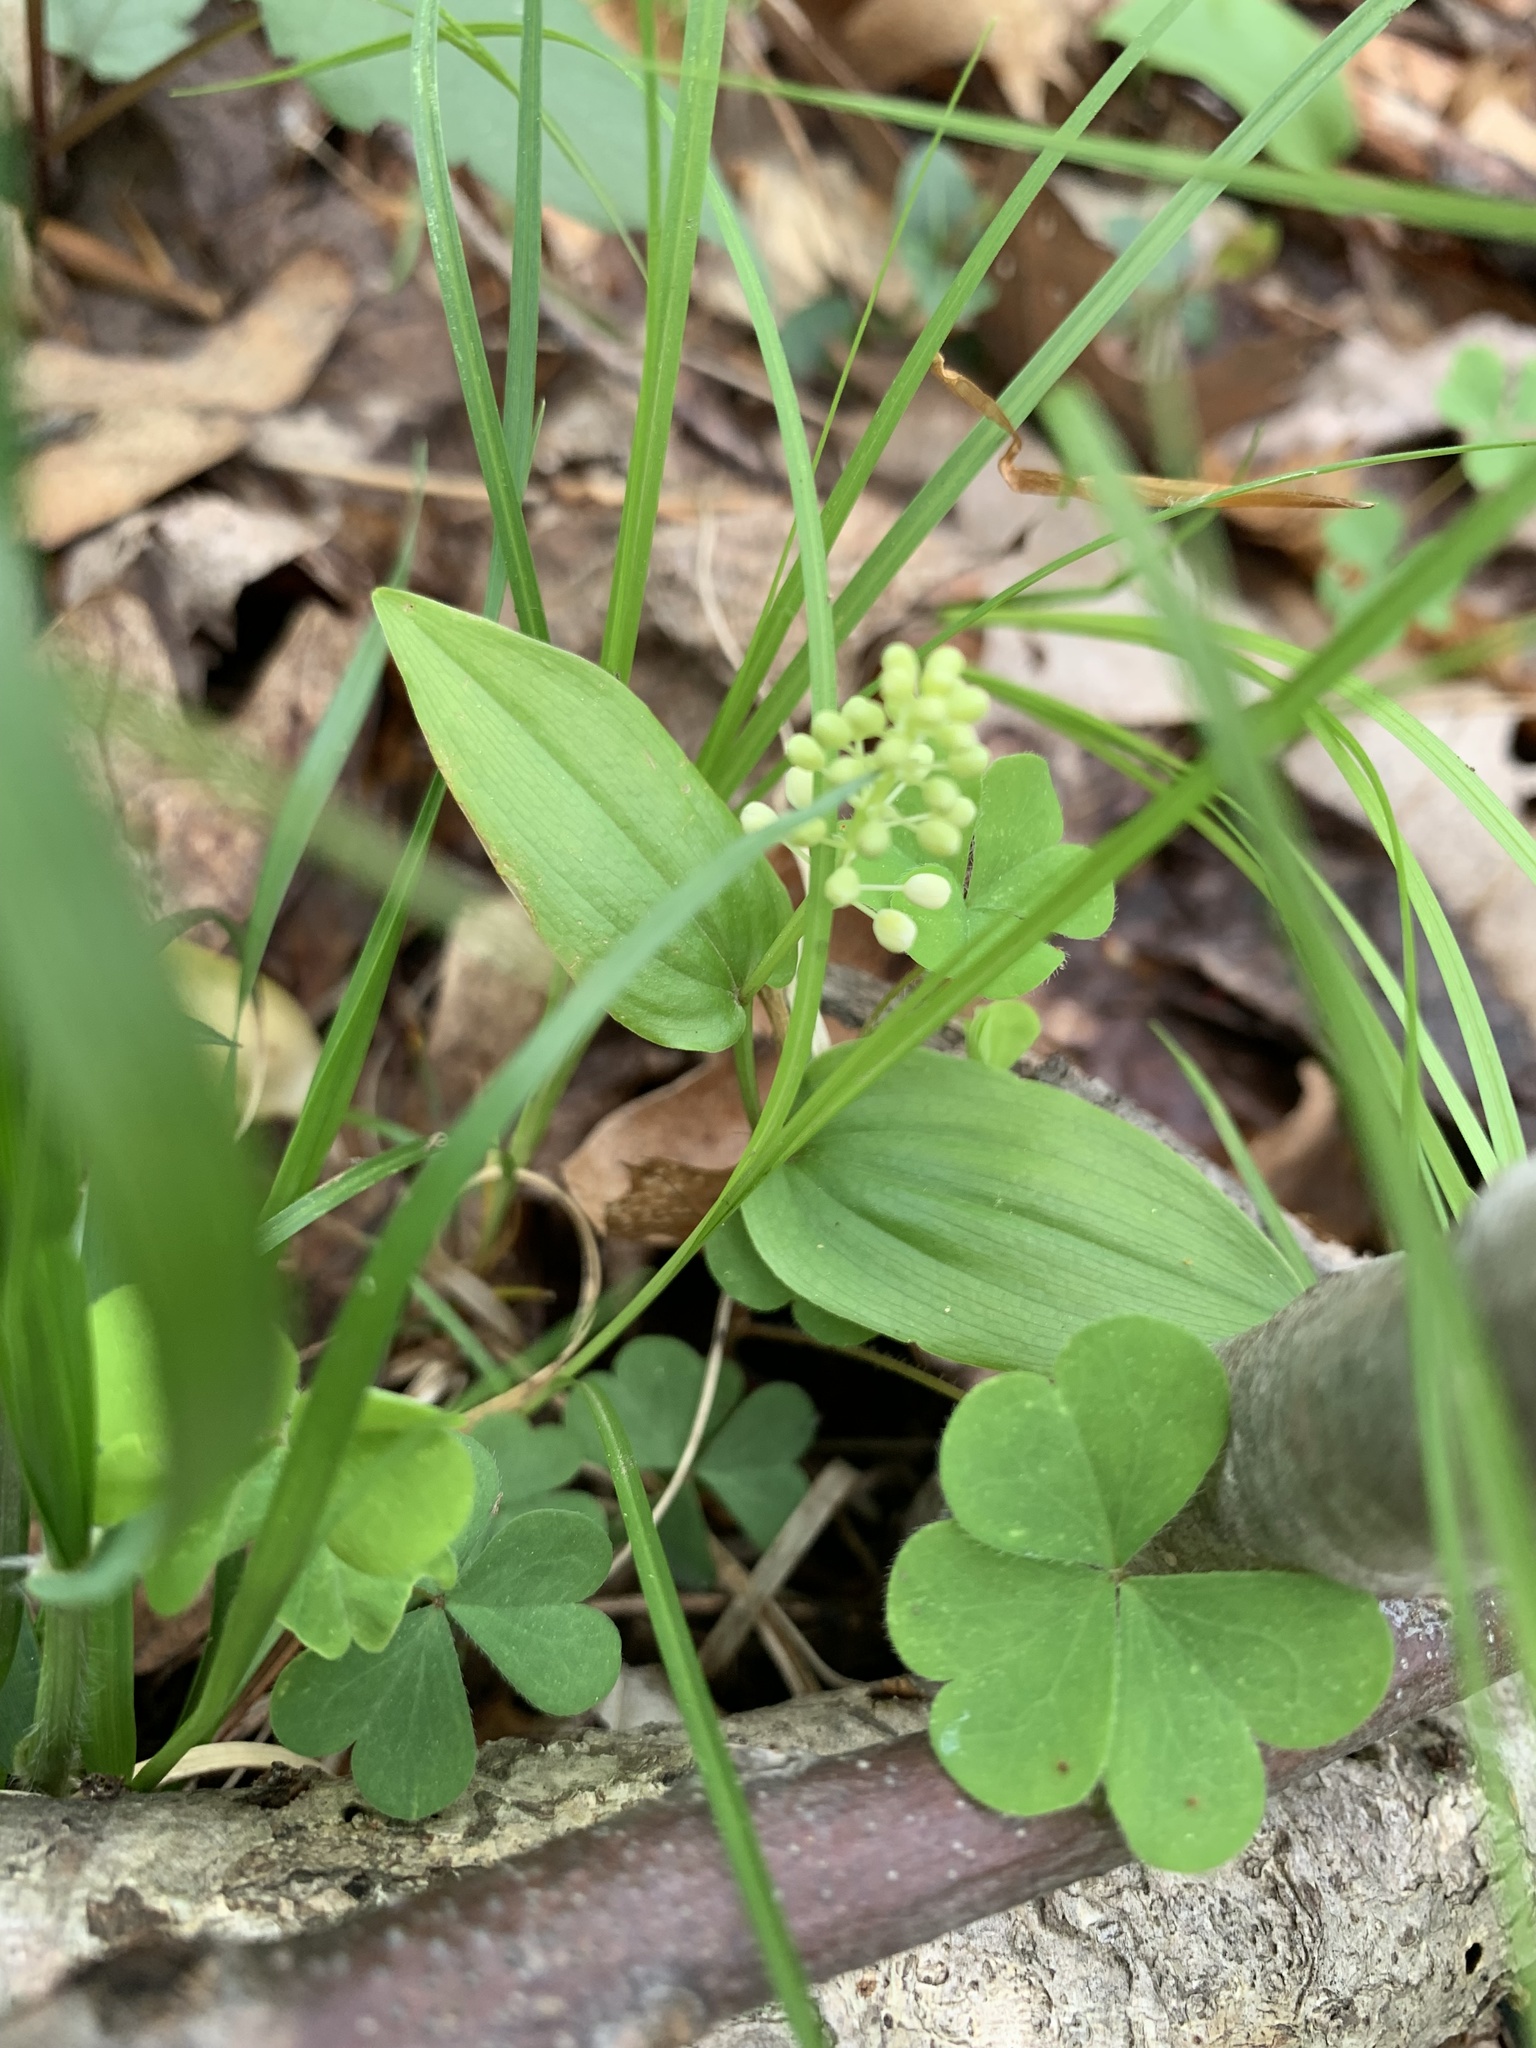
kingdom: Plantae
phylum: Tracheophyta
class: Liliopsida
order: Asparagales
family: Asparagaceae
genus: Maianthemum
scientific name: Maianthemum canadense
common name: False lily-of-the-valley
